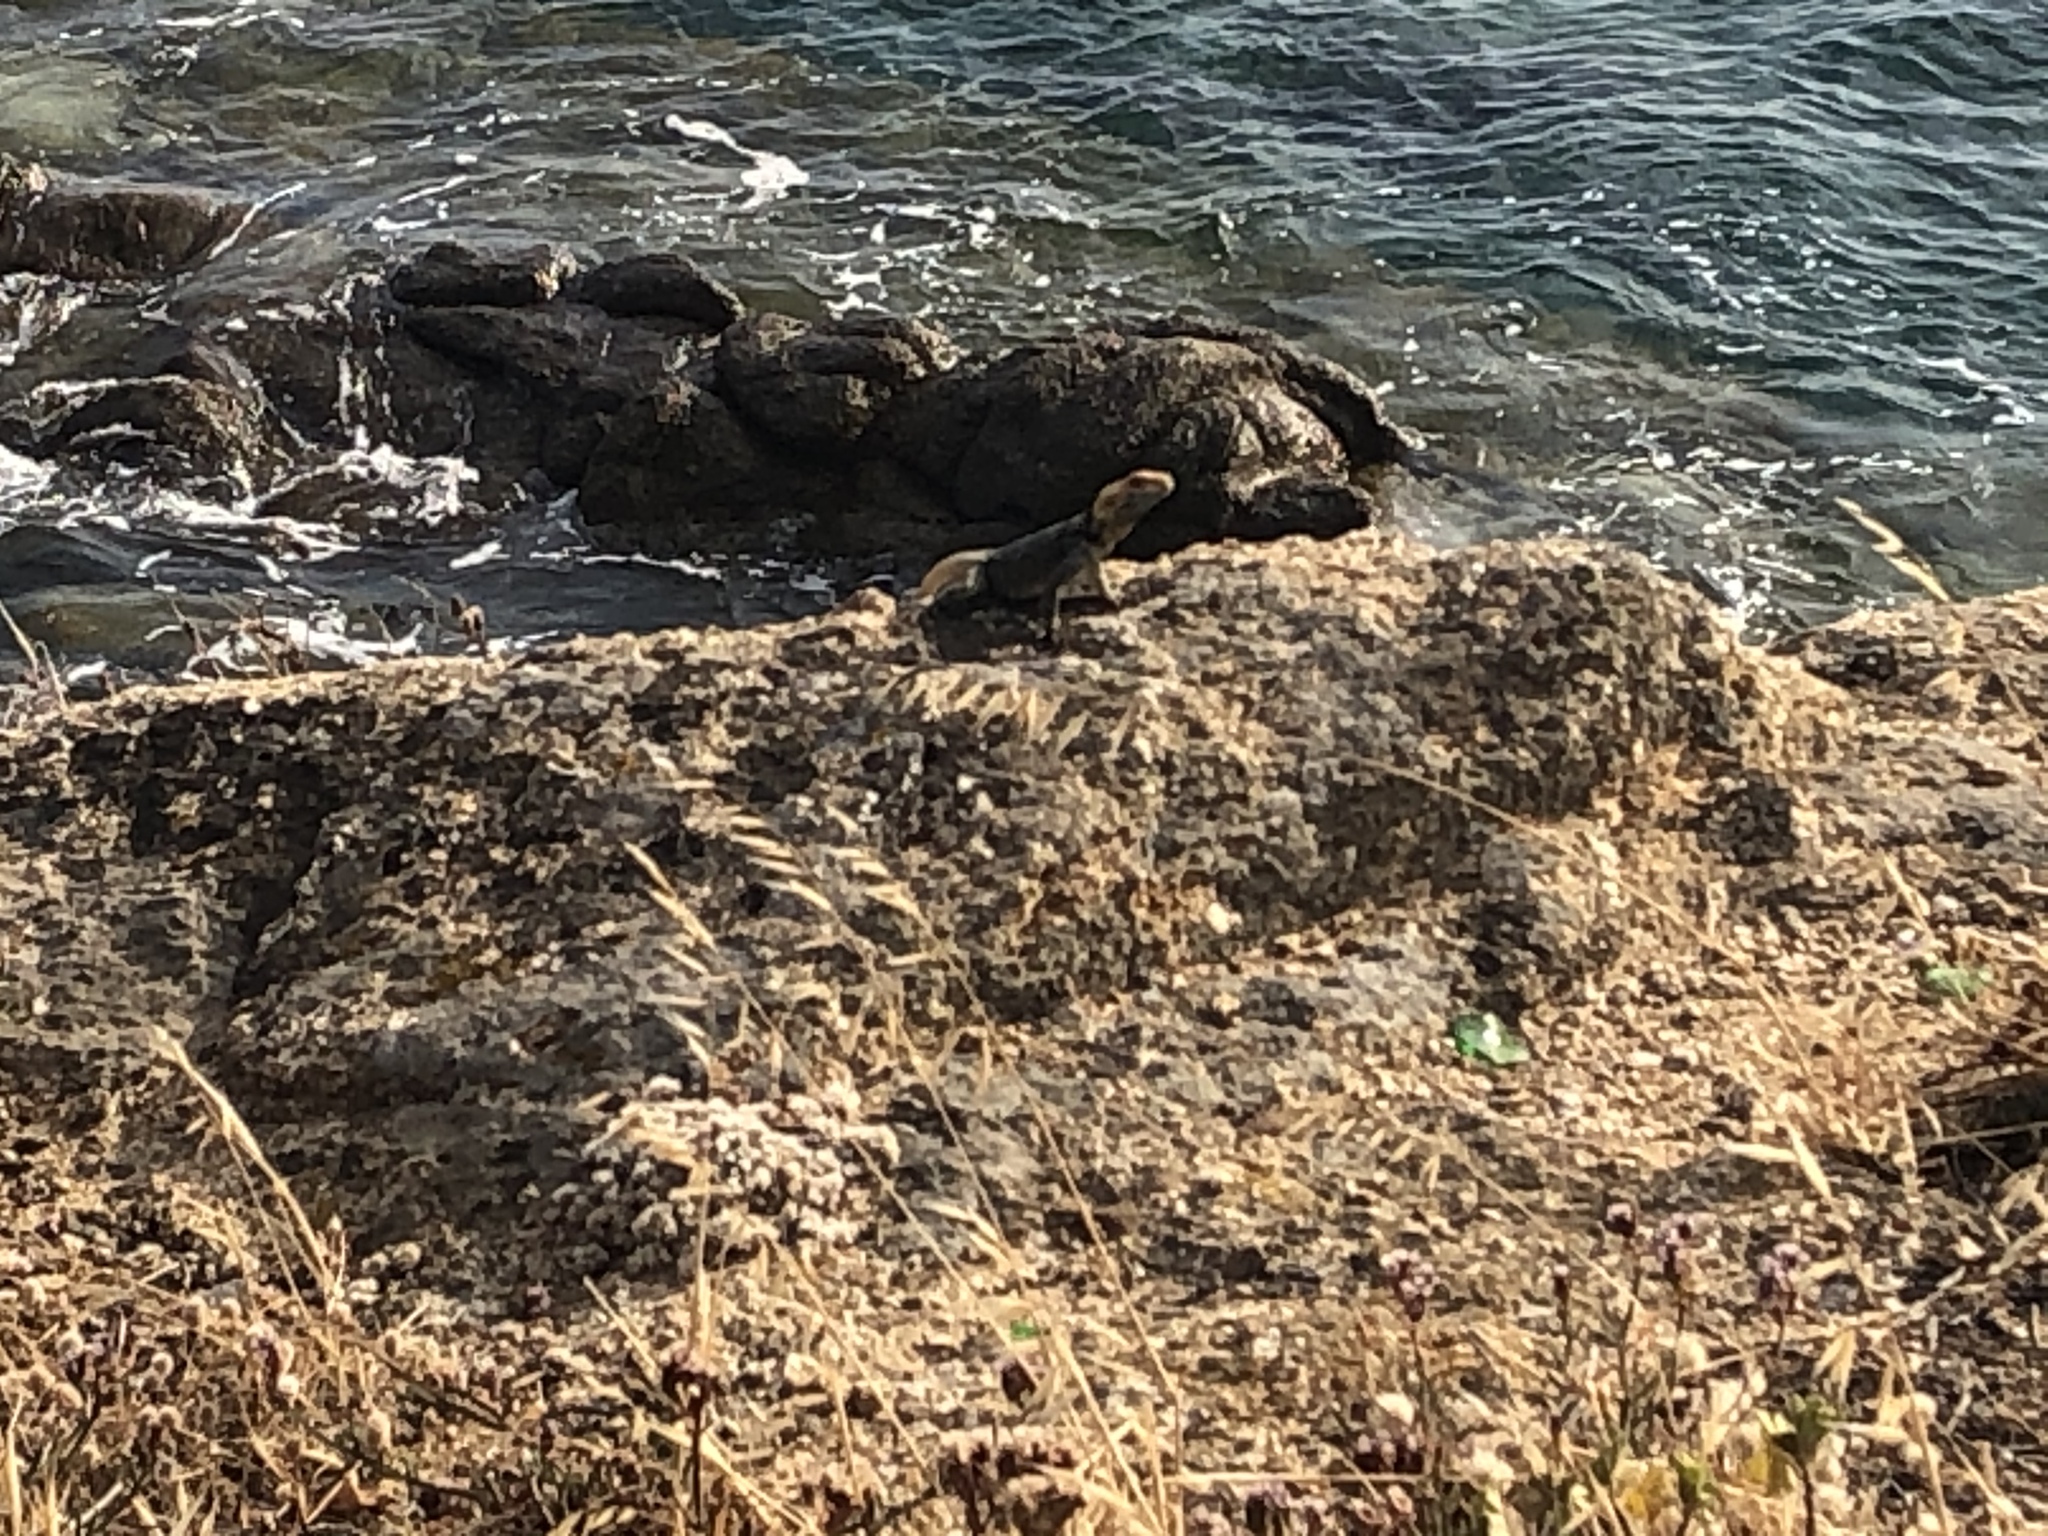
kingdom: Animalia
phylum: Chordata
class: Squamata
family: Agamidae
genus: Stellagama
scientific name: Stellagama stellio
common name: Starred agama
